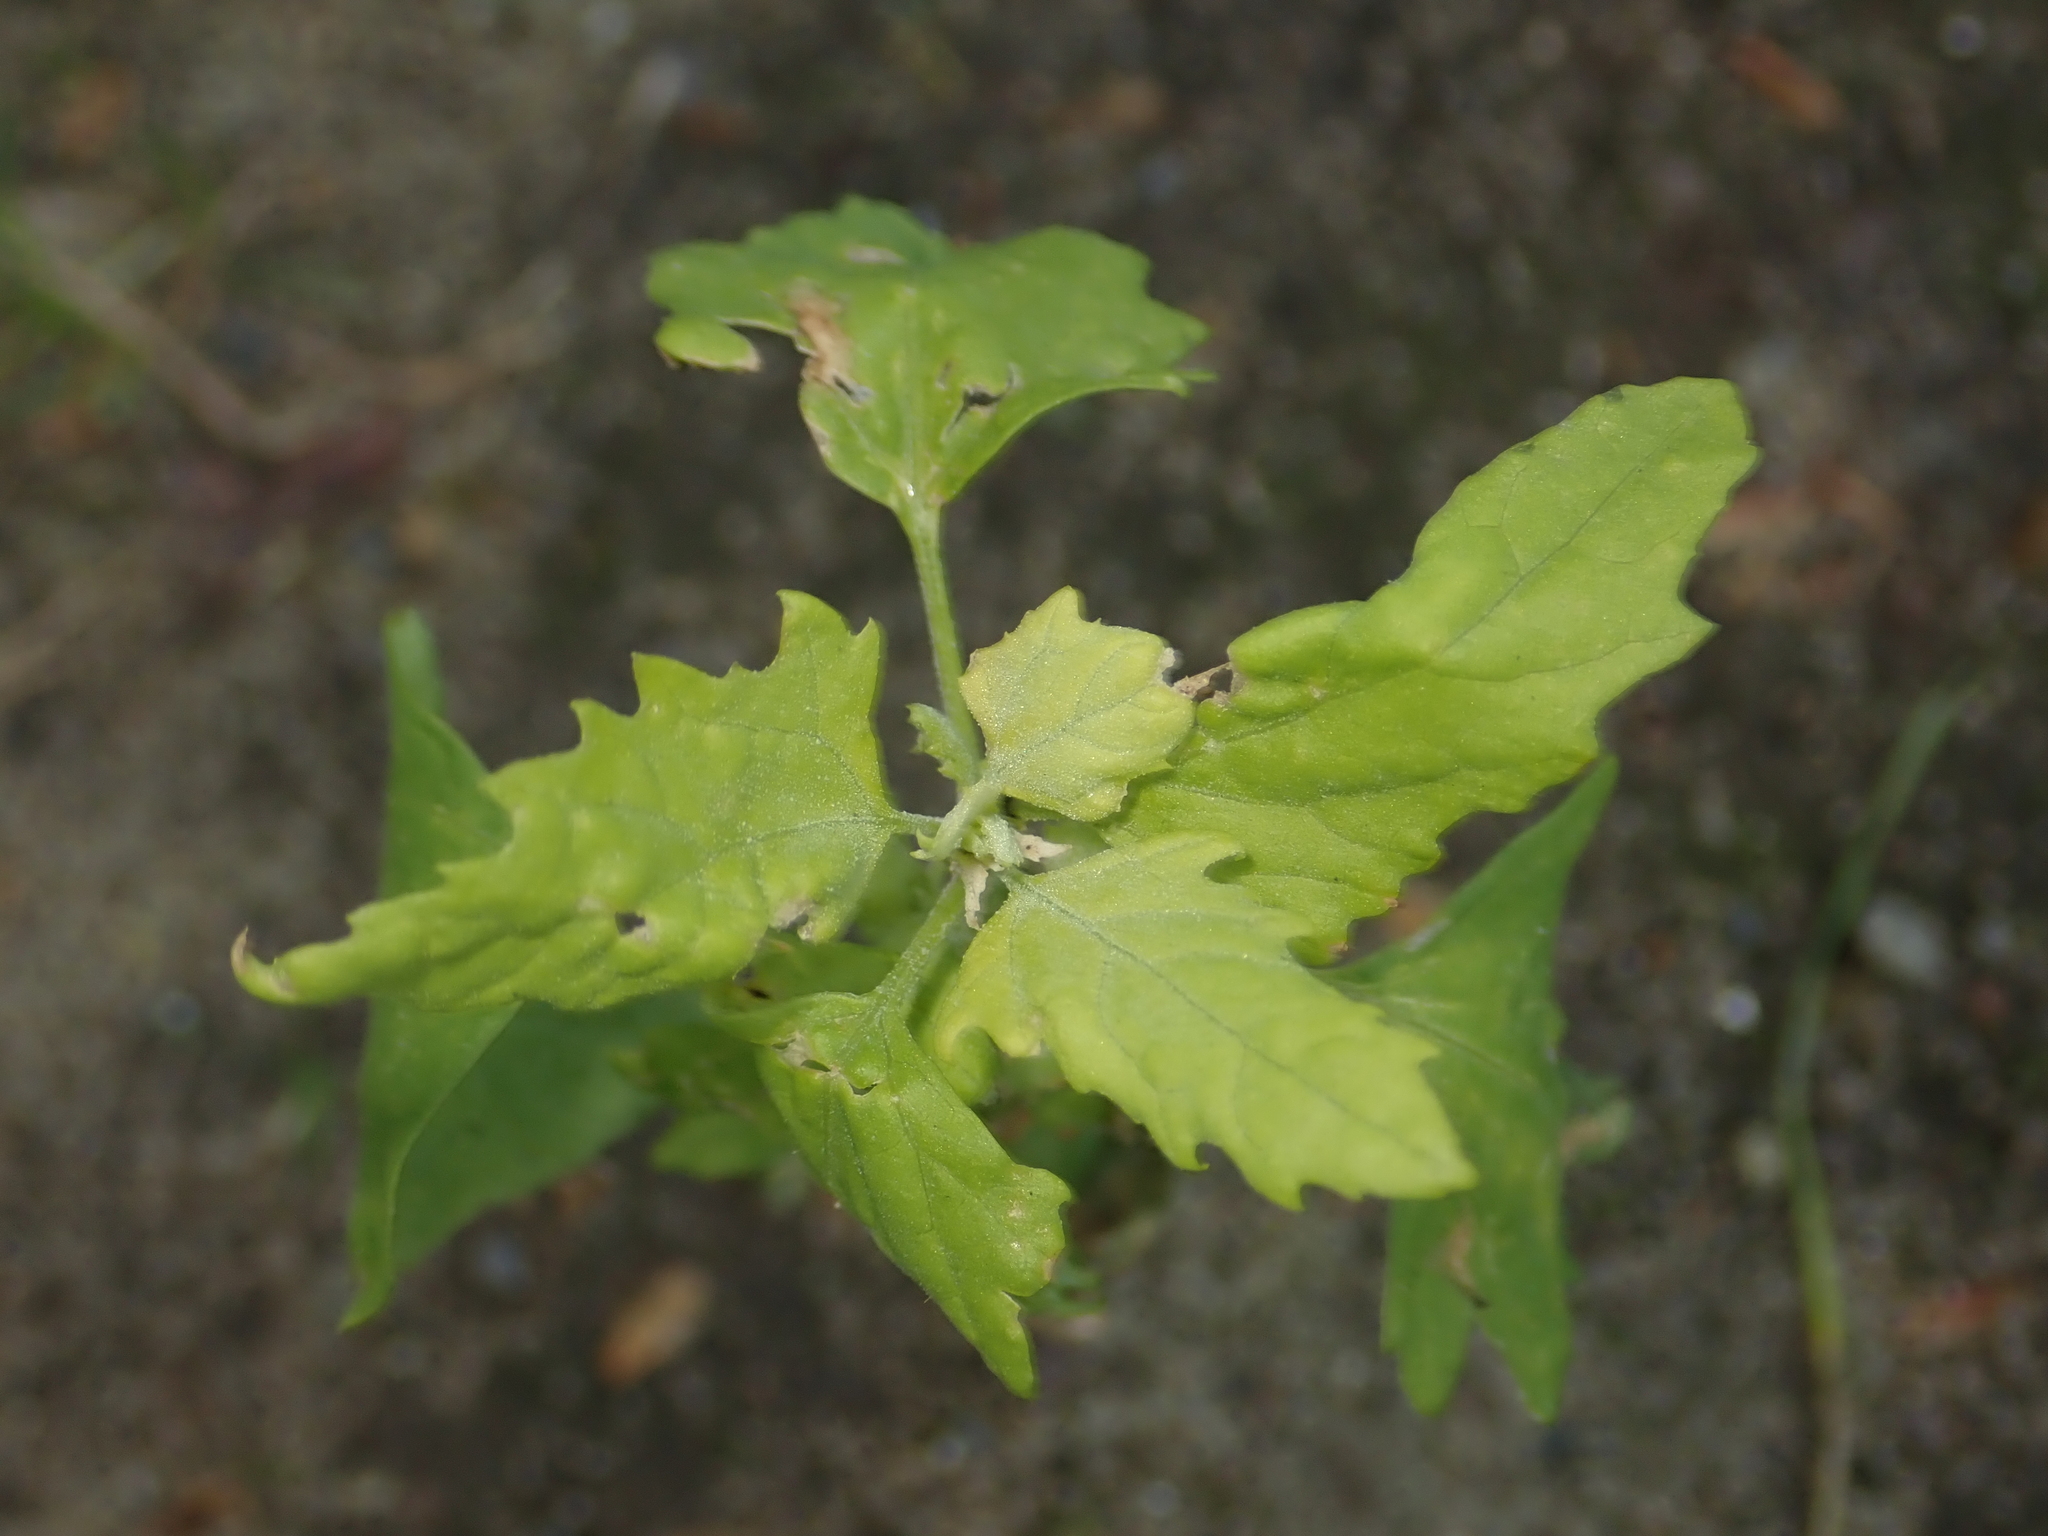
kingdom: Plantae
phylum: Tracheophyta
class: Magnoliopsida
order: Caryophyllales
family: Amaranthaceae
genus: Chenopodium
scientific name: Chenopodium album
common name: Fat-hen
